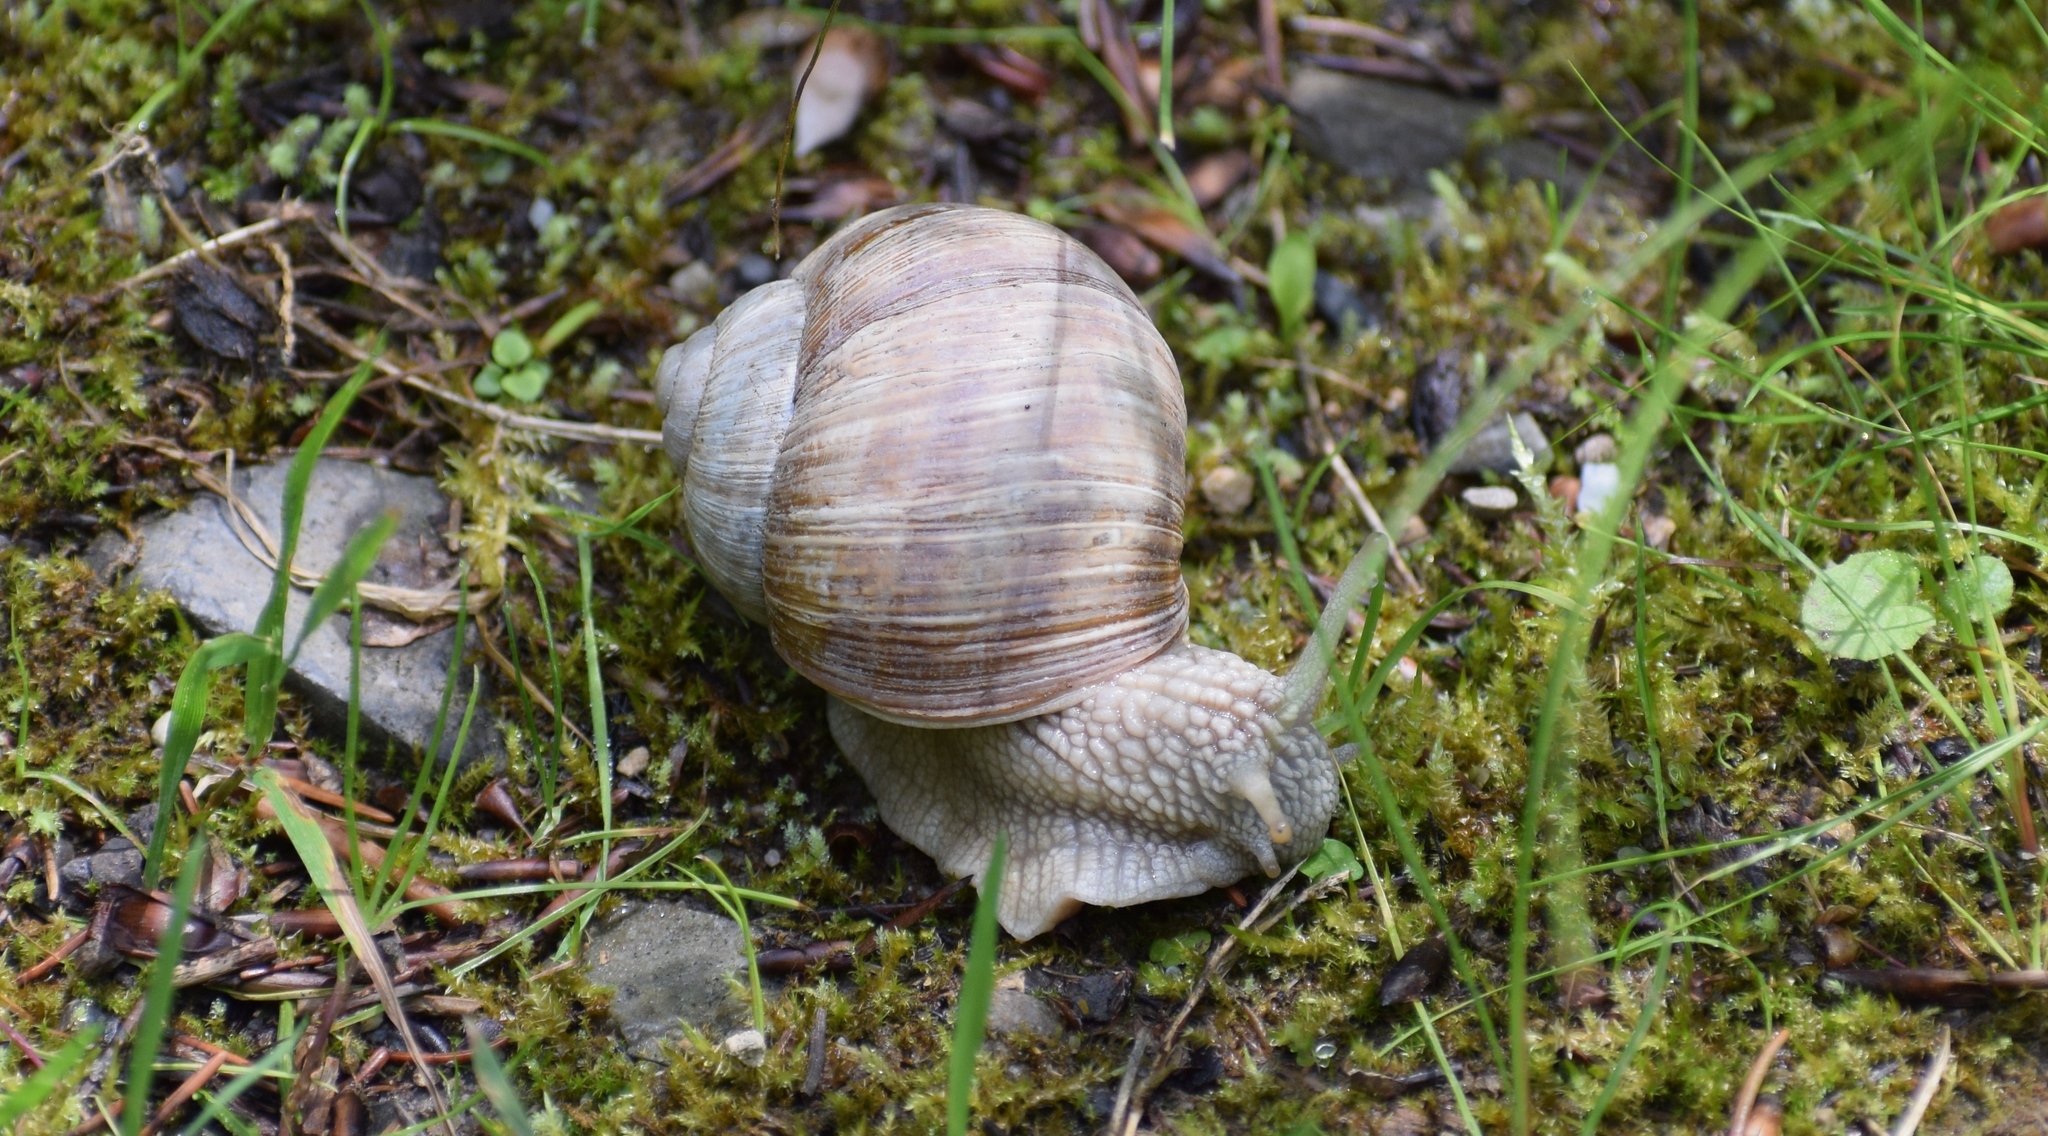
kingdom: Animalia
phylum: Mollusca
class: Gastropoda
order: Stylommatophora
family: Helicidae
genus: Helix
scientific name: Helix pomatia
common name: Roman snail
